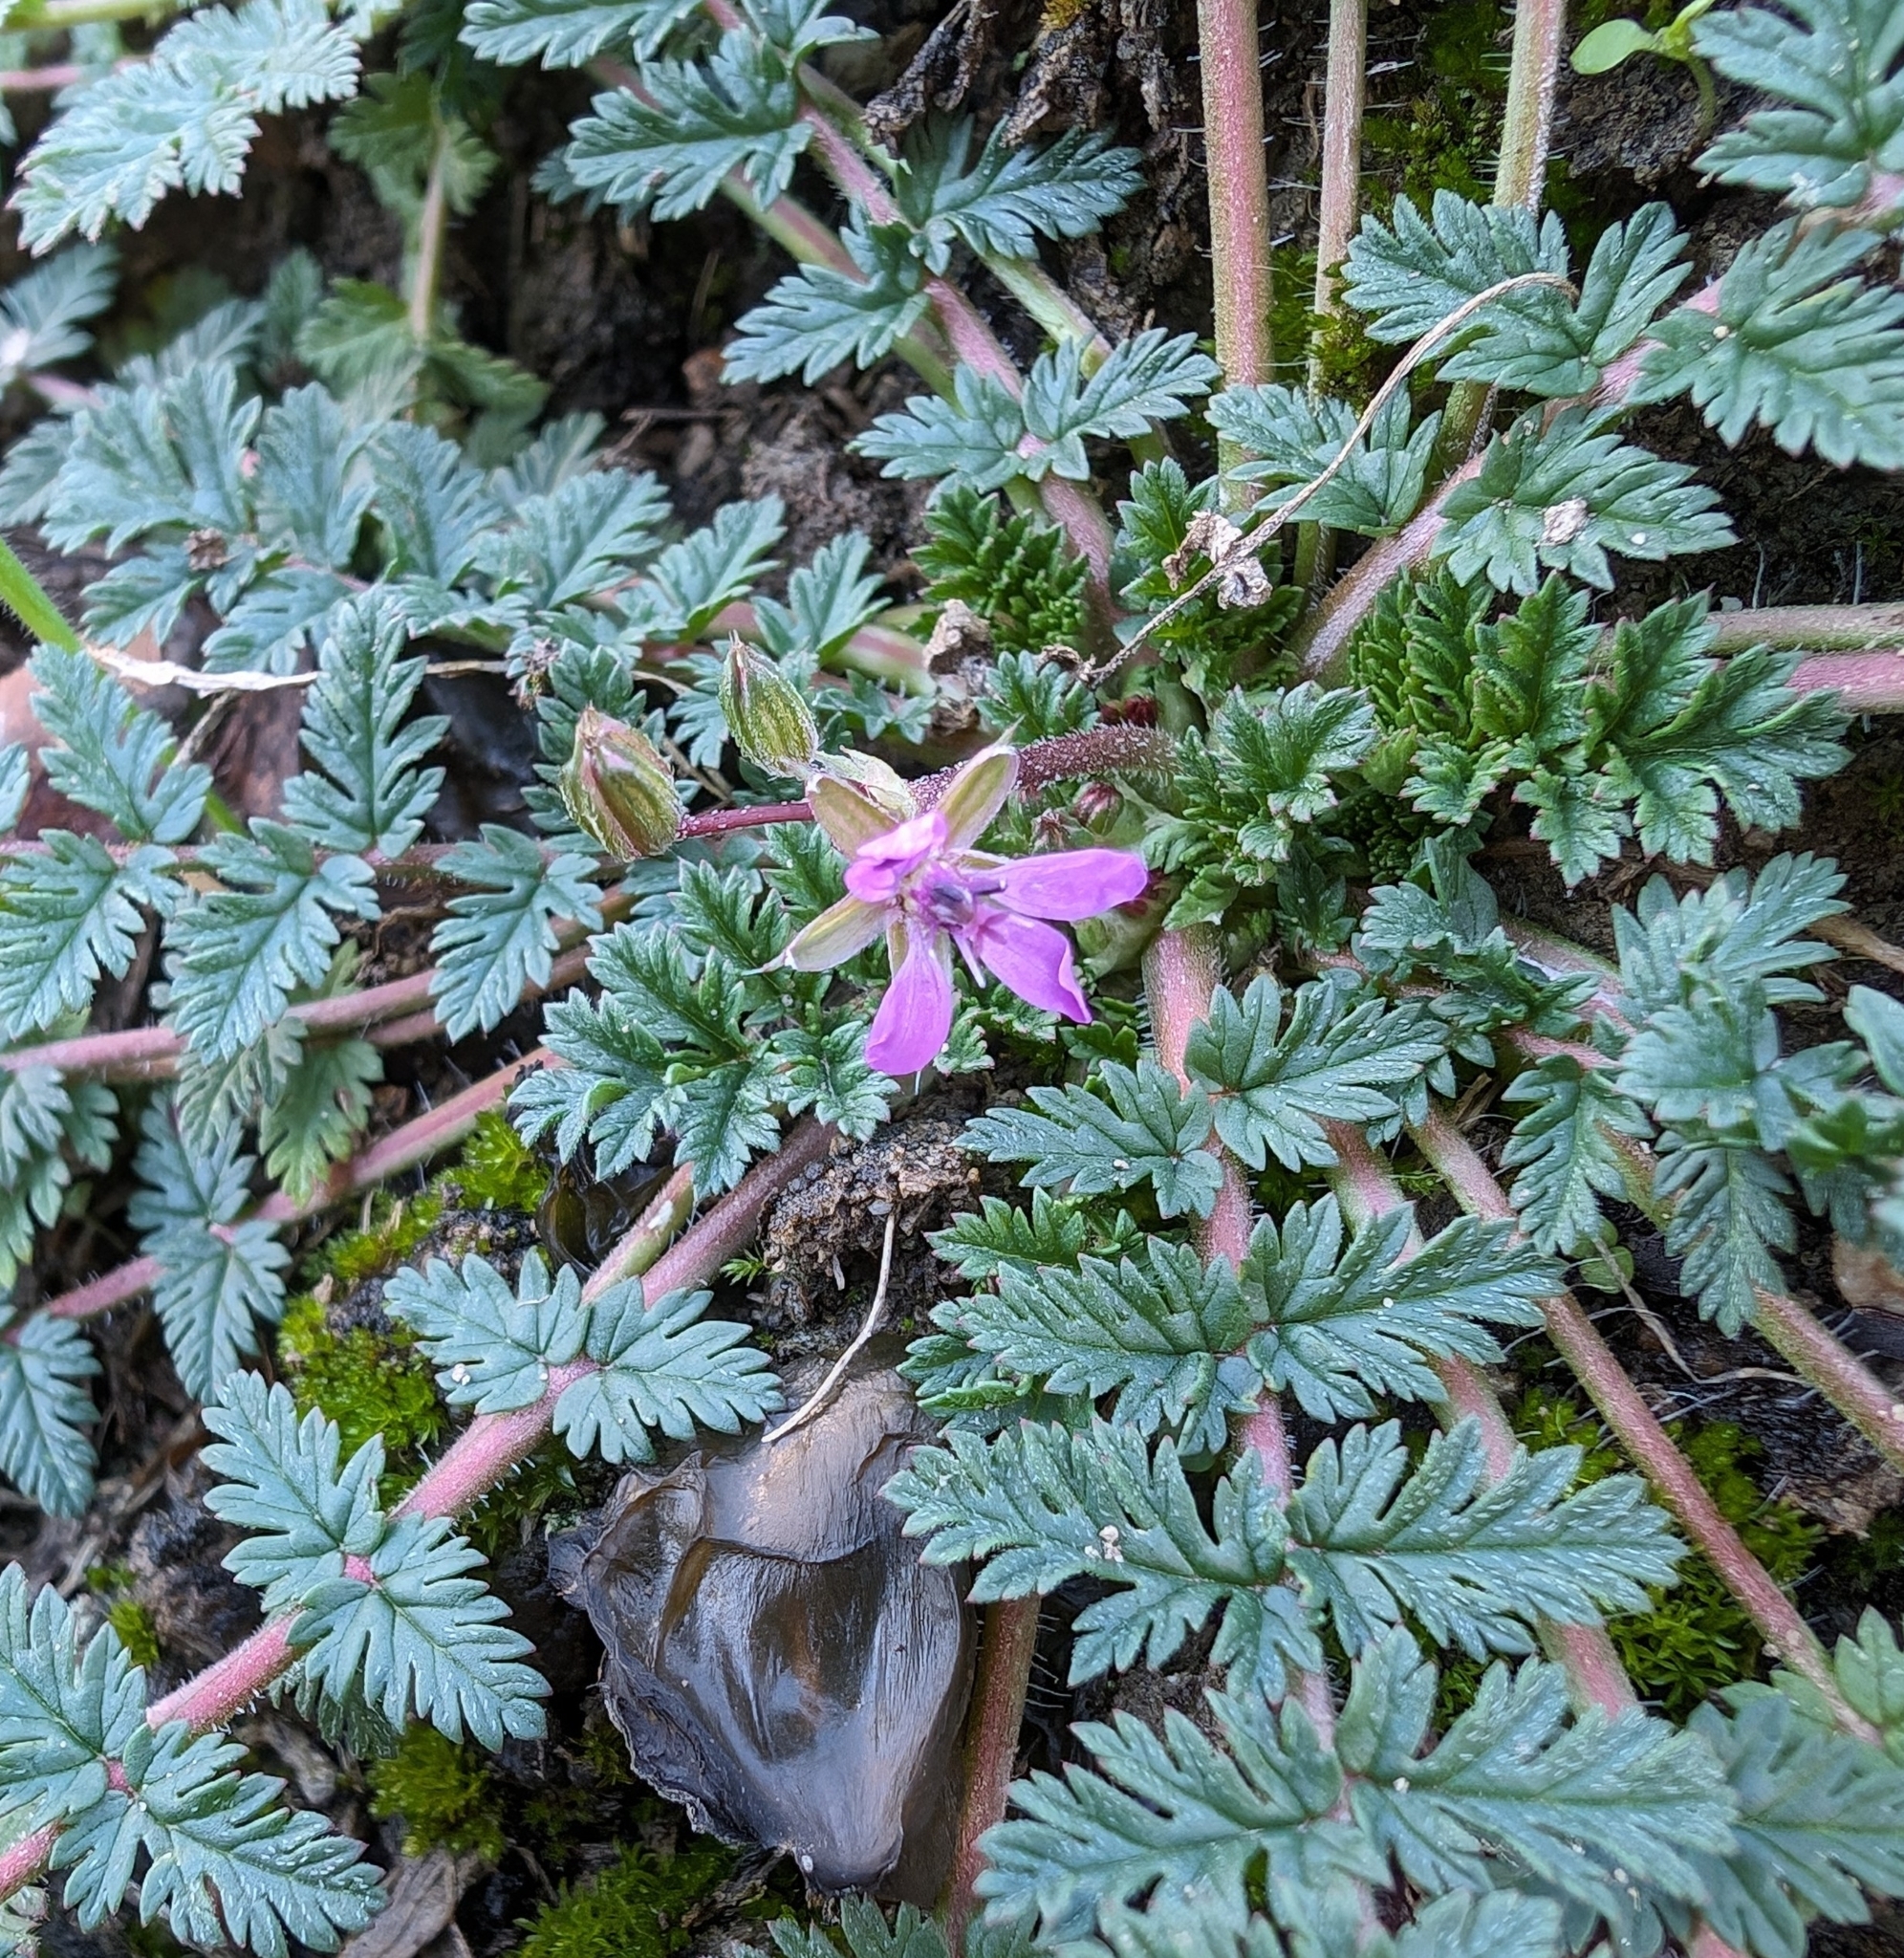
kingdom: Plantae
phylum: Tracheophyta
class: Magnoliopsida
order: Geraniales
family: Geraniaceae
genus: Erodium
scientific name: Erodium cicutarium
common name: Common stork's-bill
